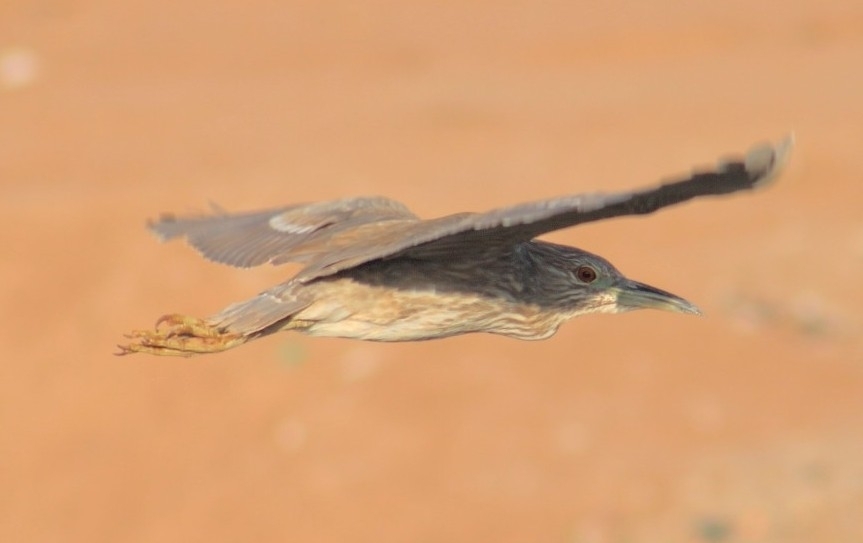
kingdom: Animalia
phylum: Chordata
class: Aves
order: Pelecaniformes
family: Ardeidae
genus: Nycticorax
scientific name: Nycticorax nycticorax
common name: Black-crowned night heron
